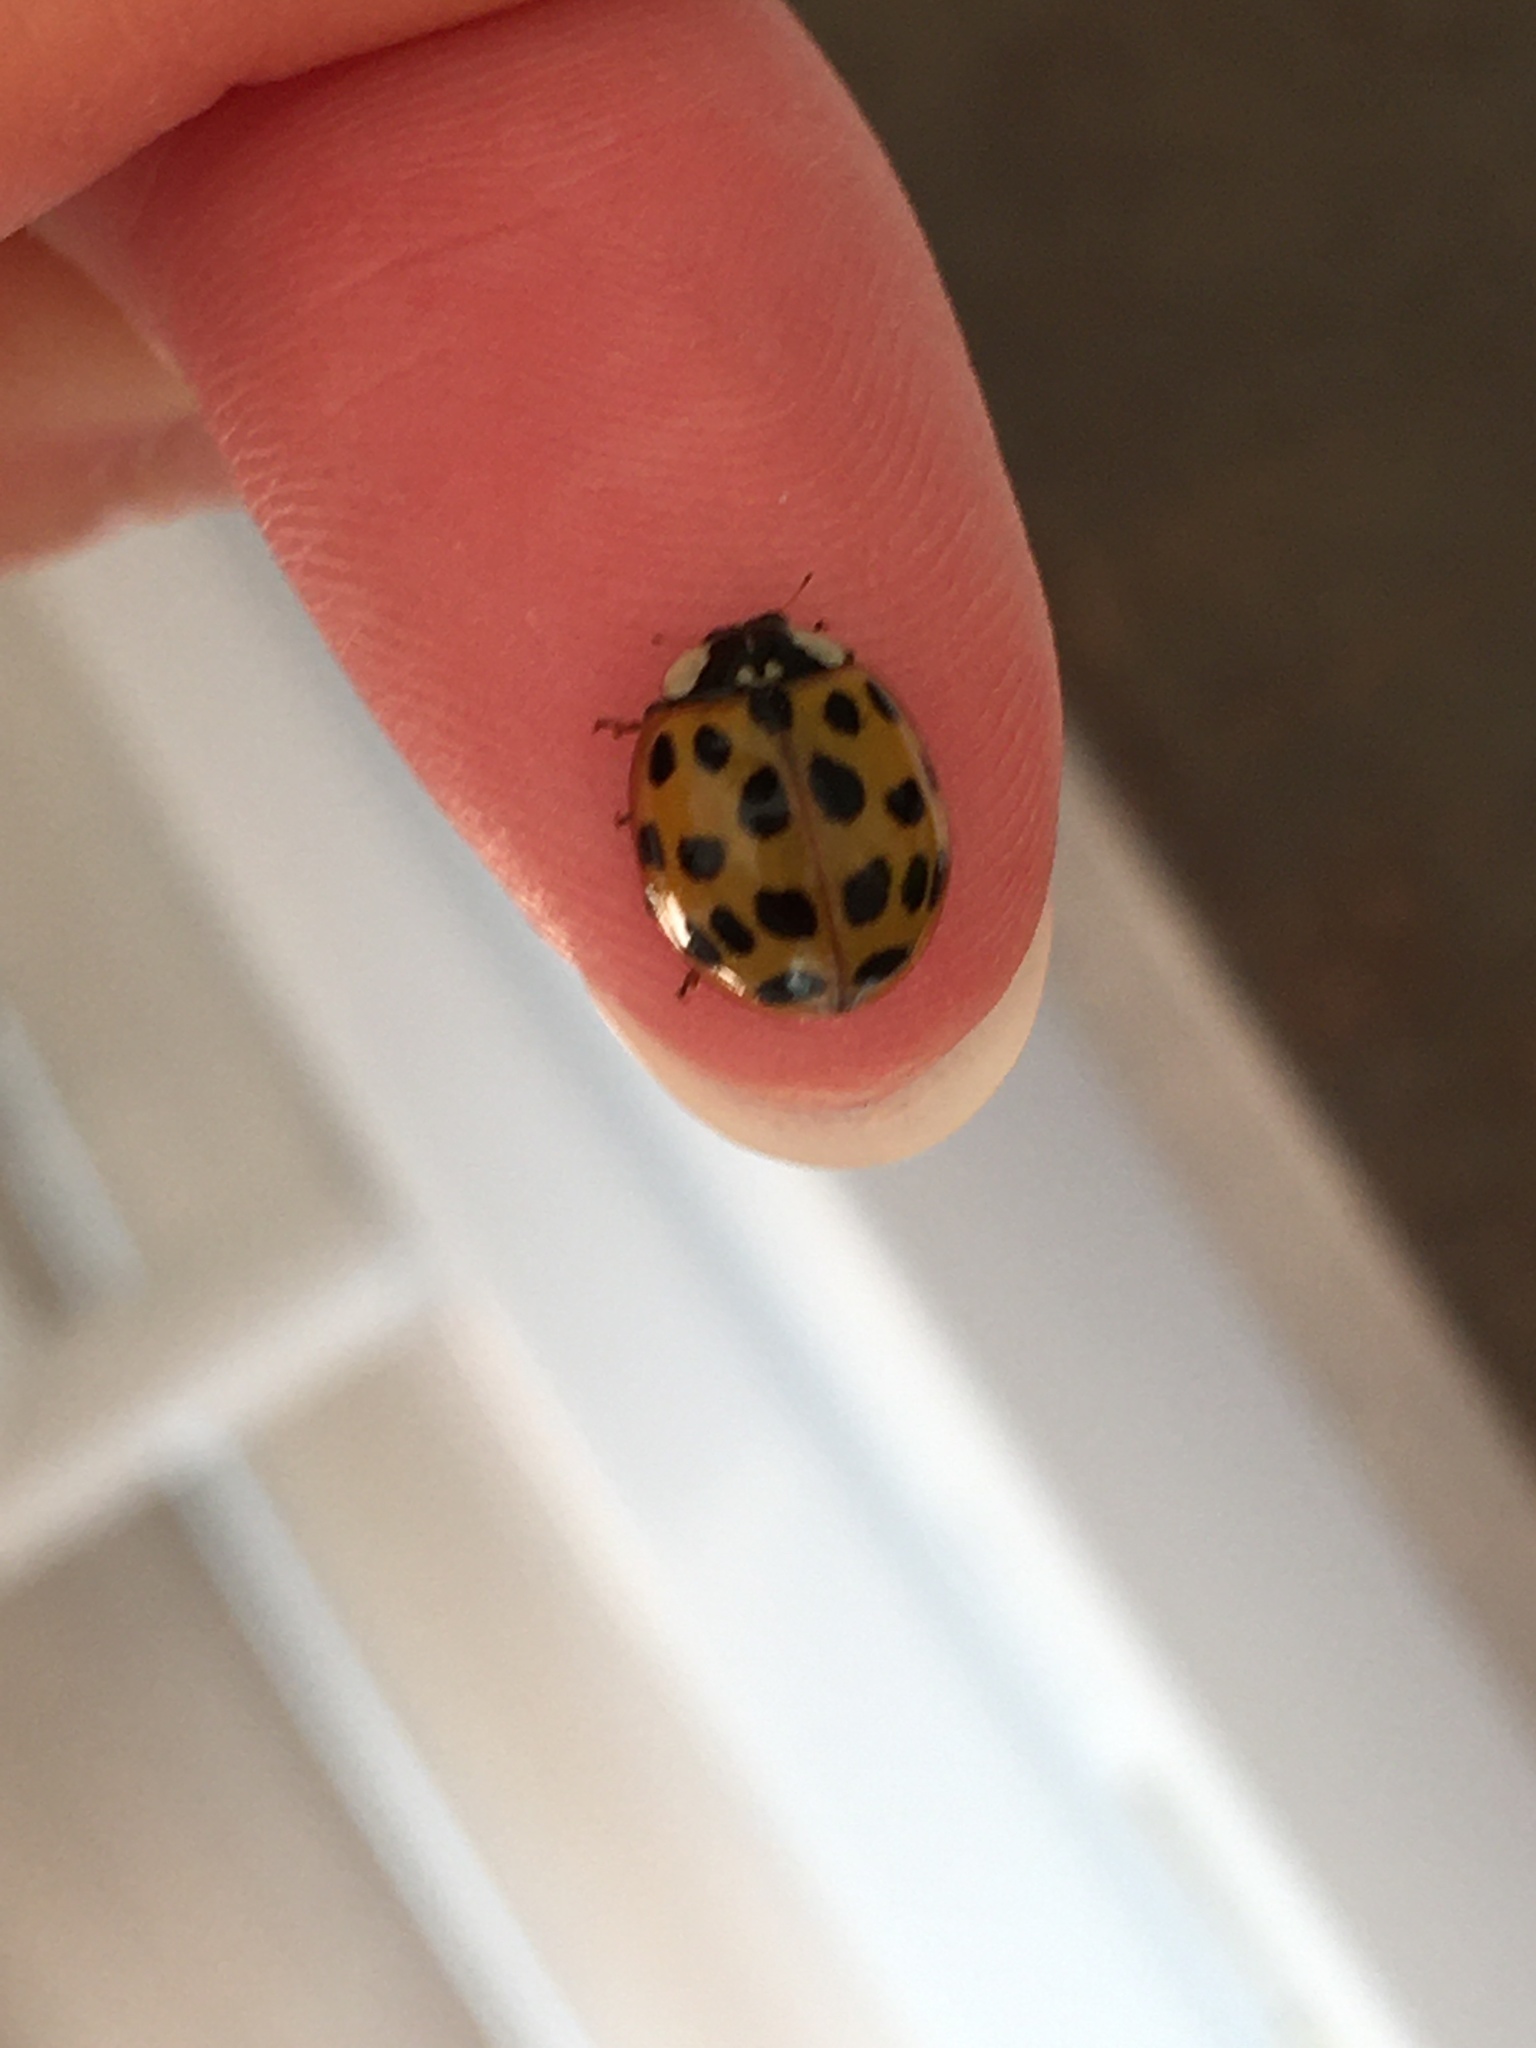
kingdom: Animalia
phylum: Arthropoda
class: Insecta
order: Coleoptera
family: Coccinellidae
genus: Harmonia
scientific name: Harmonia axyridis
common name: Harlequin ladybird
